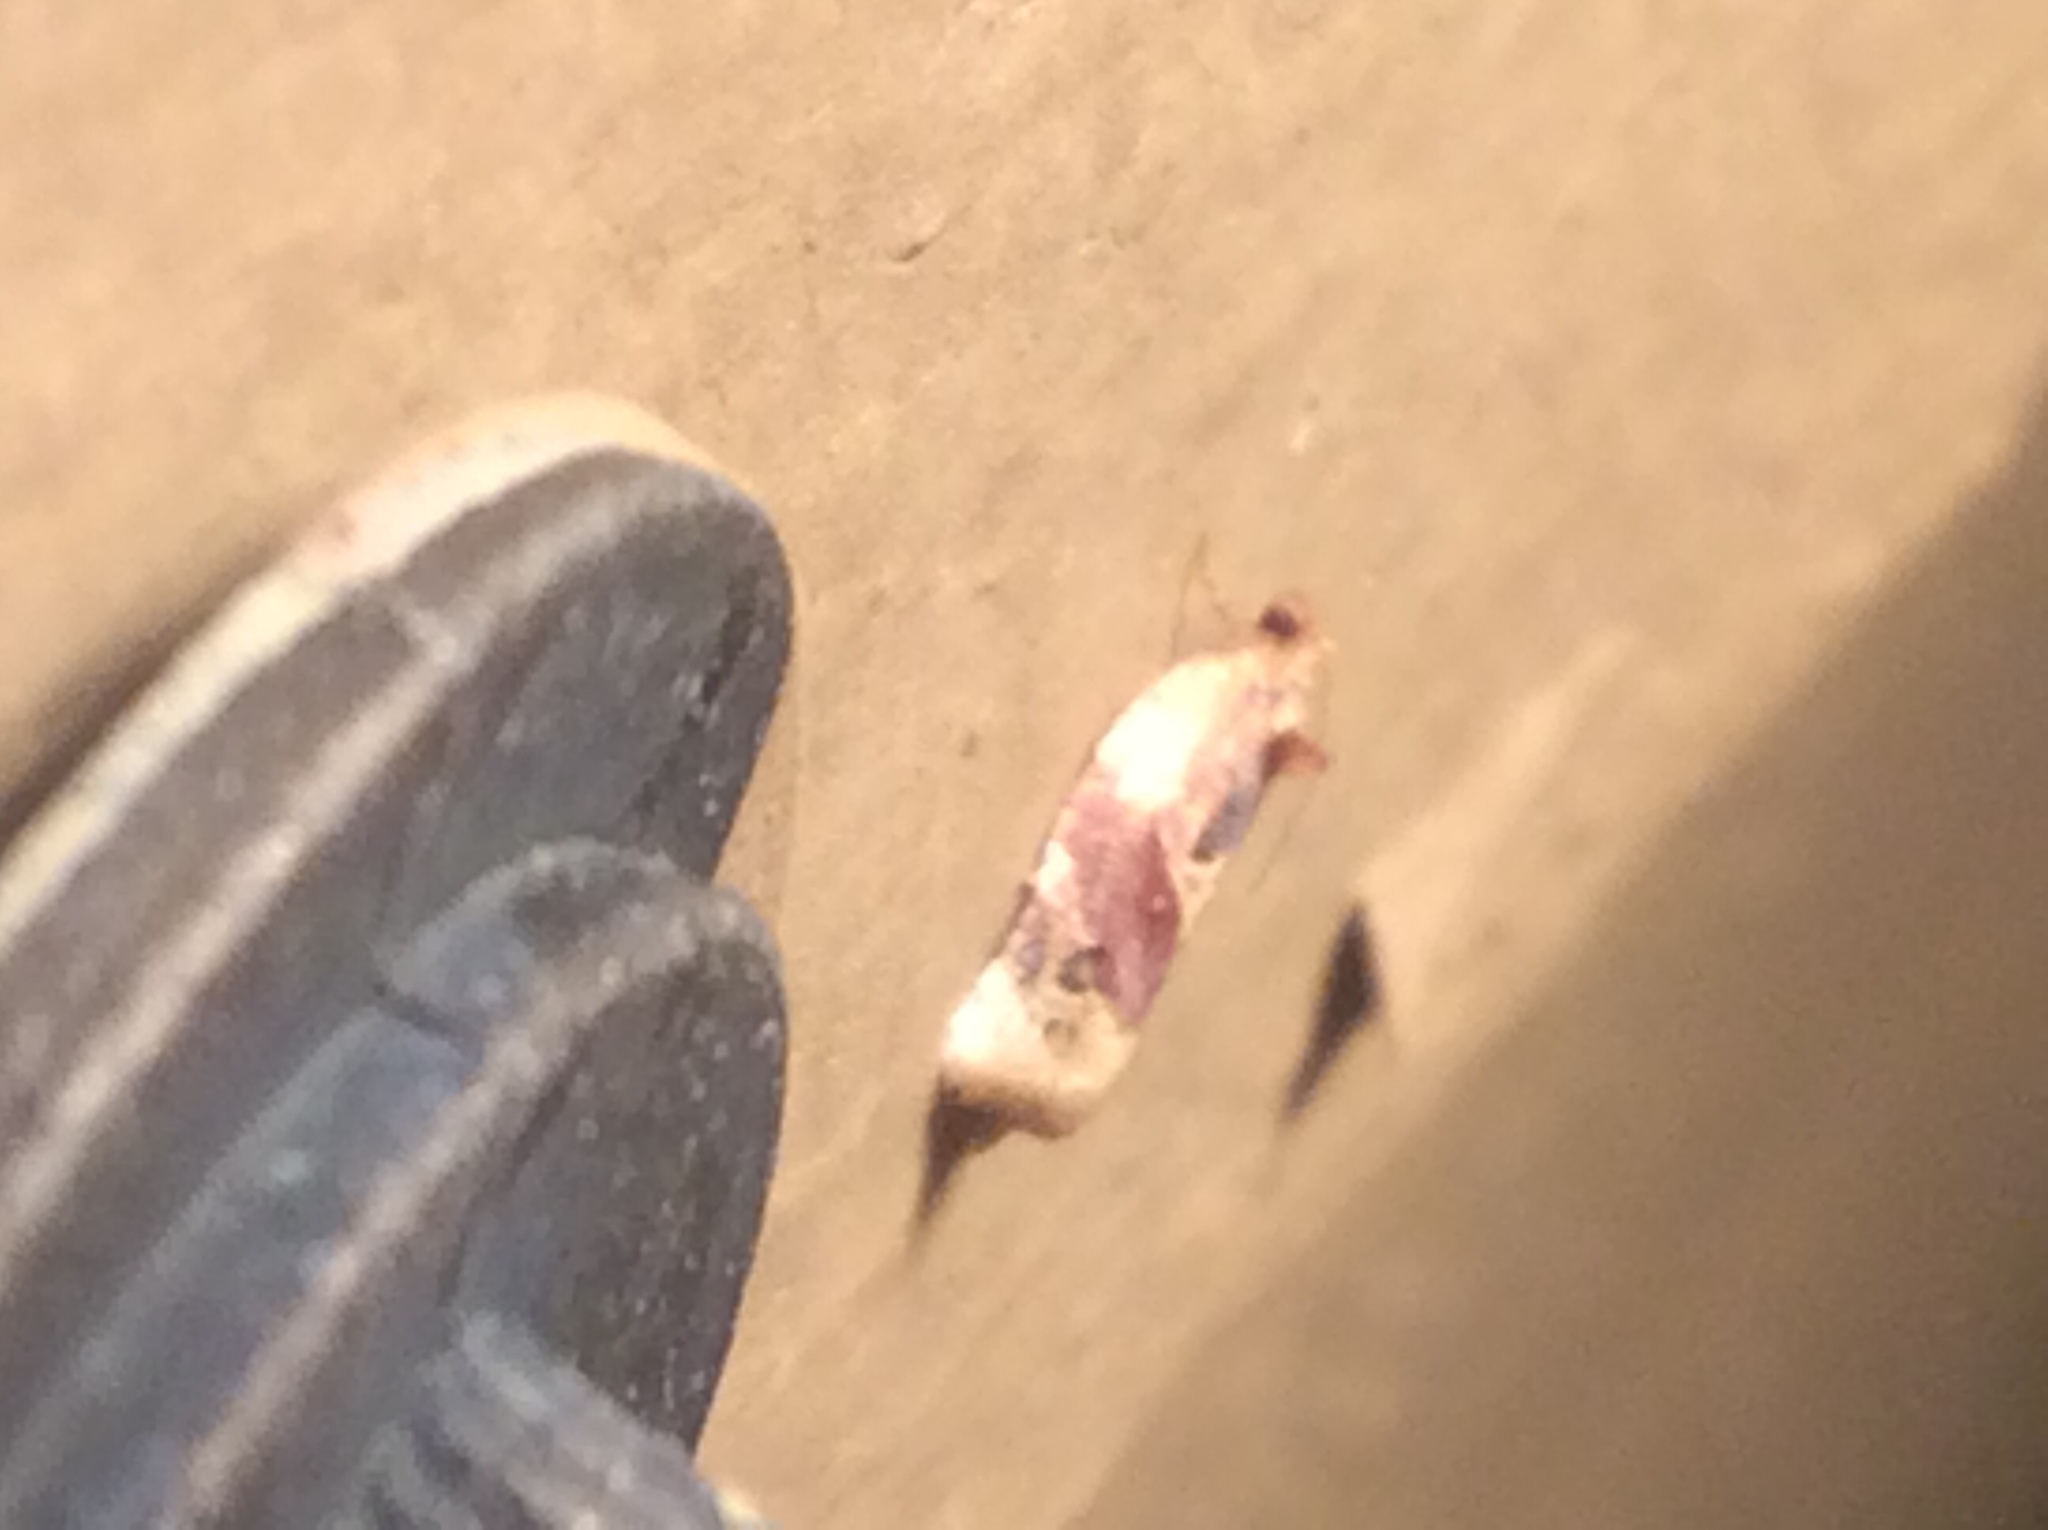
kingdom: Animalia
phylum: Arthropoda
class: Insecta
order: Lepidoptera
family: Tortricidae
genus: Argyrotaenia
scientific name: Argyrotaenia velutinana
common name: Red-banded leafroller moth
